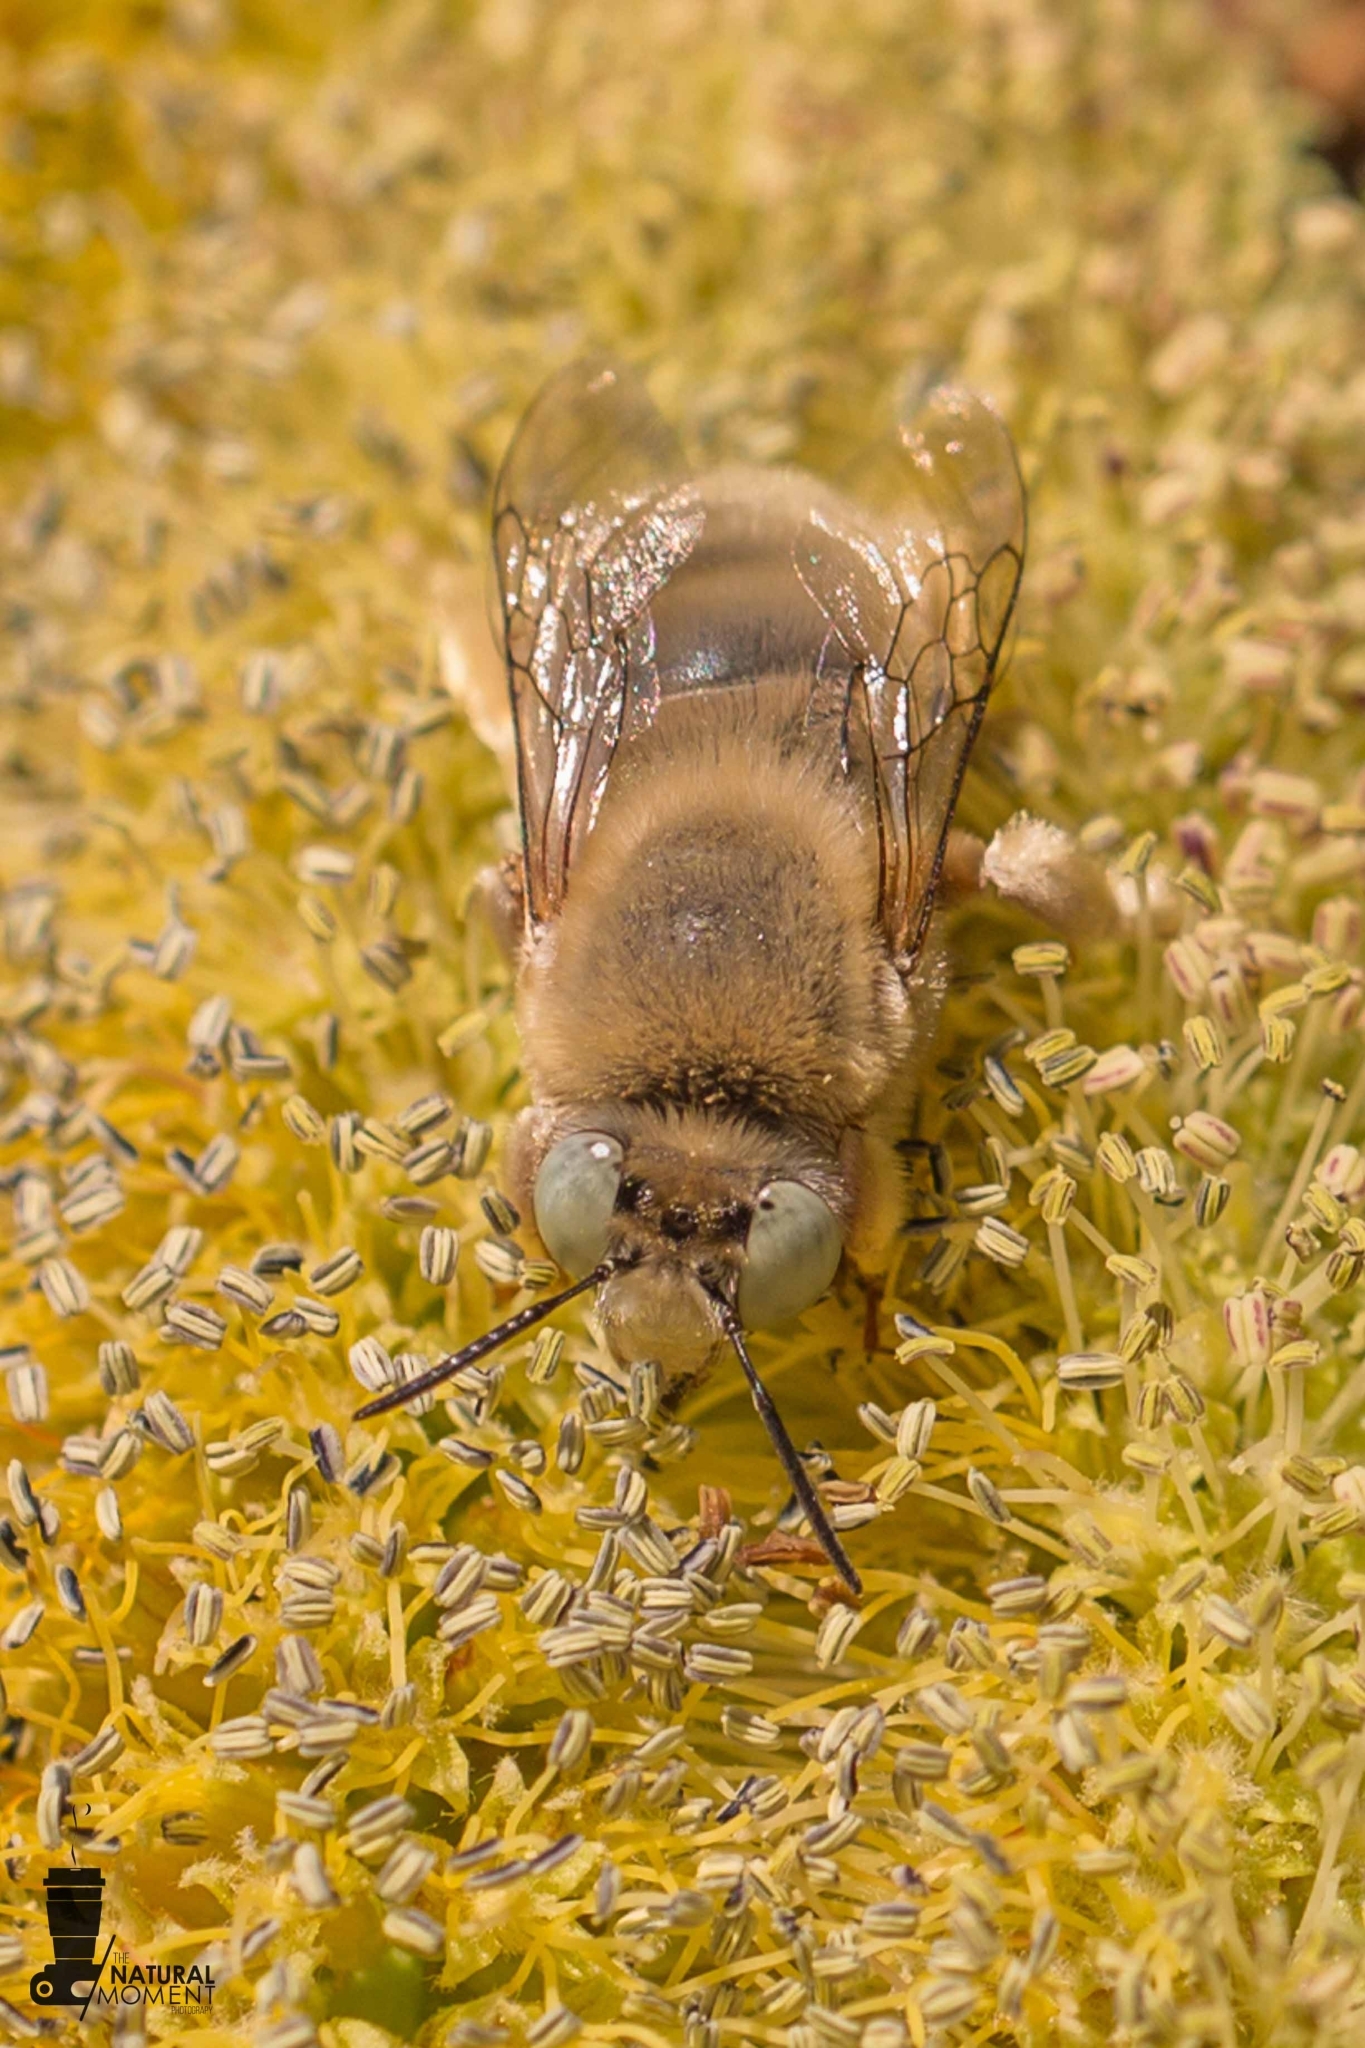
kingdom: Animalia
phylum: Arthropoda
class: Insecta
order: Hymenoptera
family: Apidae
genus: Centris
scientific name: Centris tamarugalis
